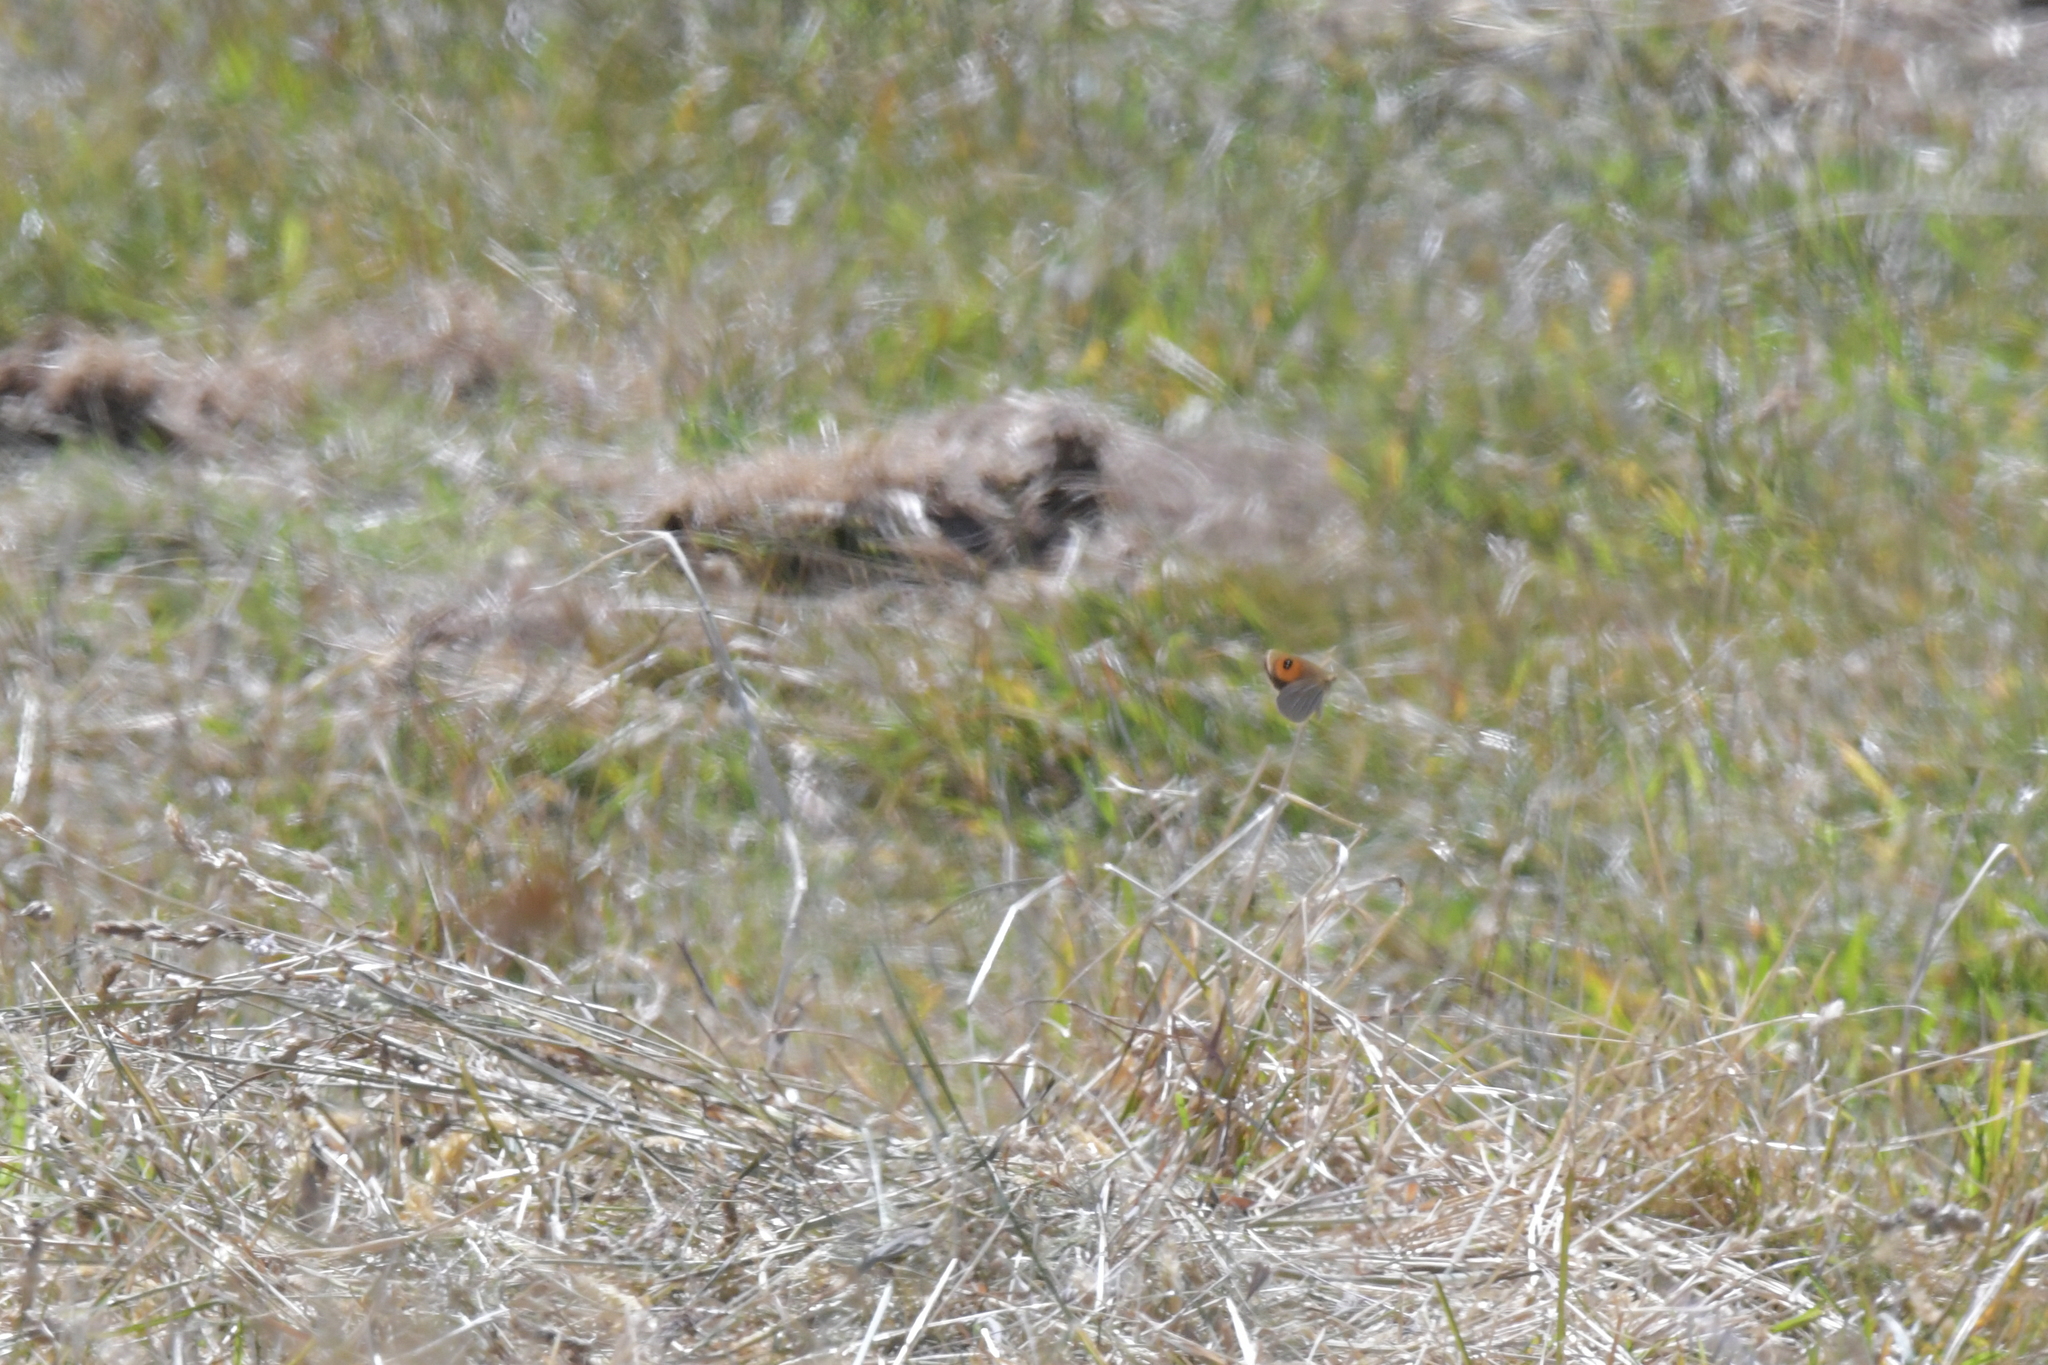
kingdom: Animalia
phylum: Arthropoda
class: Insecta
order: Lepidoptera
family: Nymphalidae
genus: Argyrophenga
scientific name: Argyrophenga antipodum
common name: Common tussock butterfly
